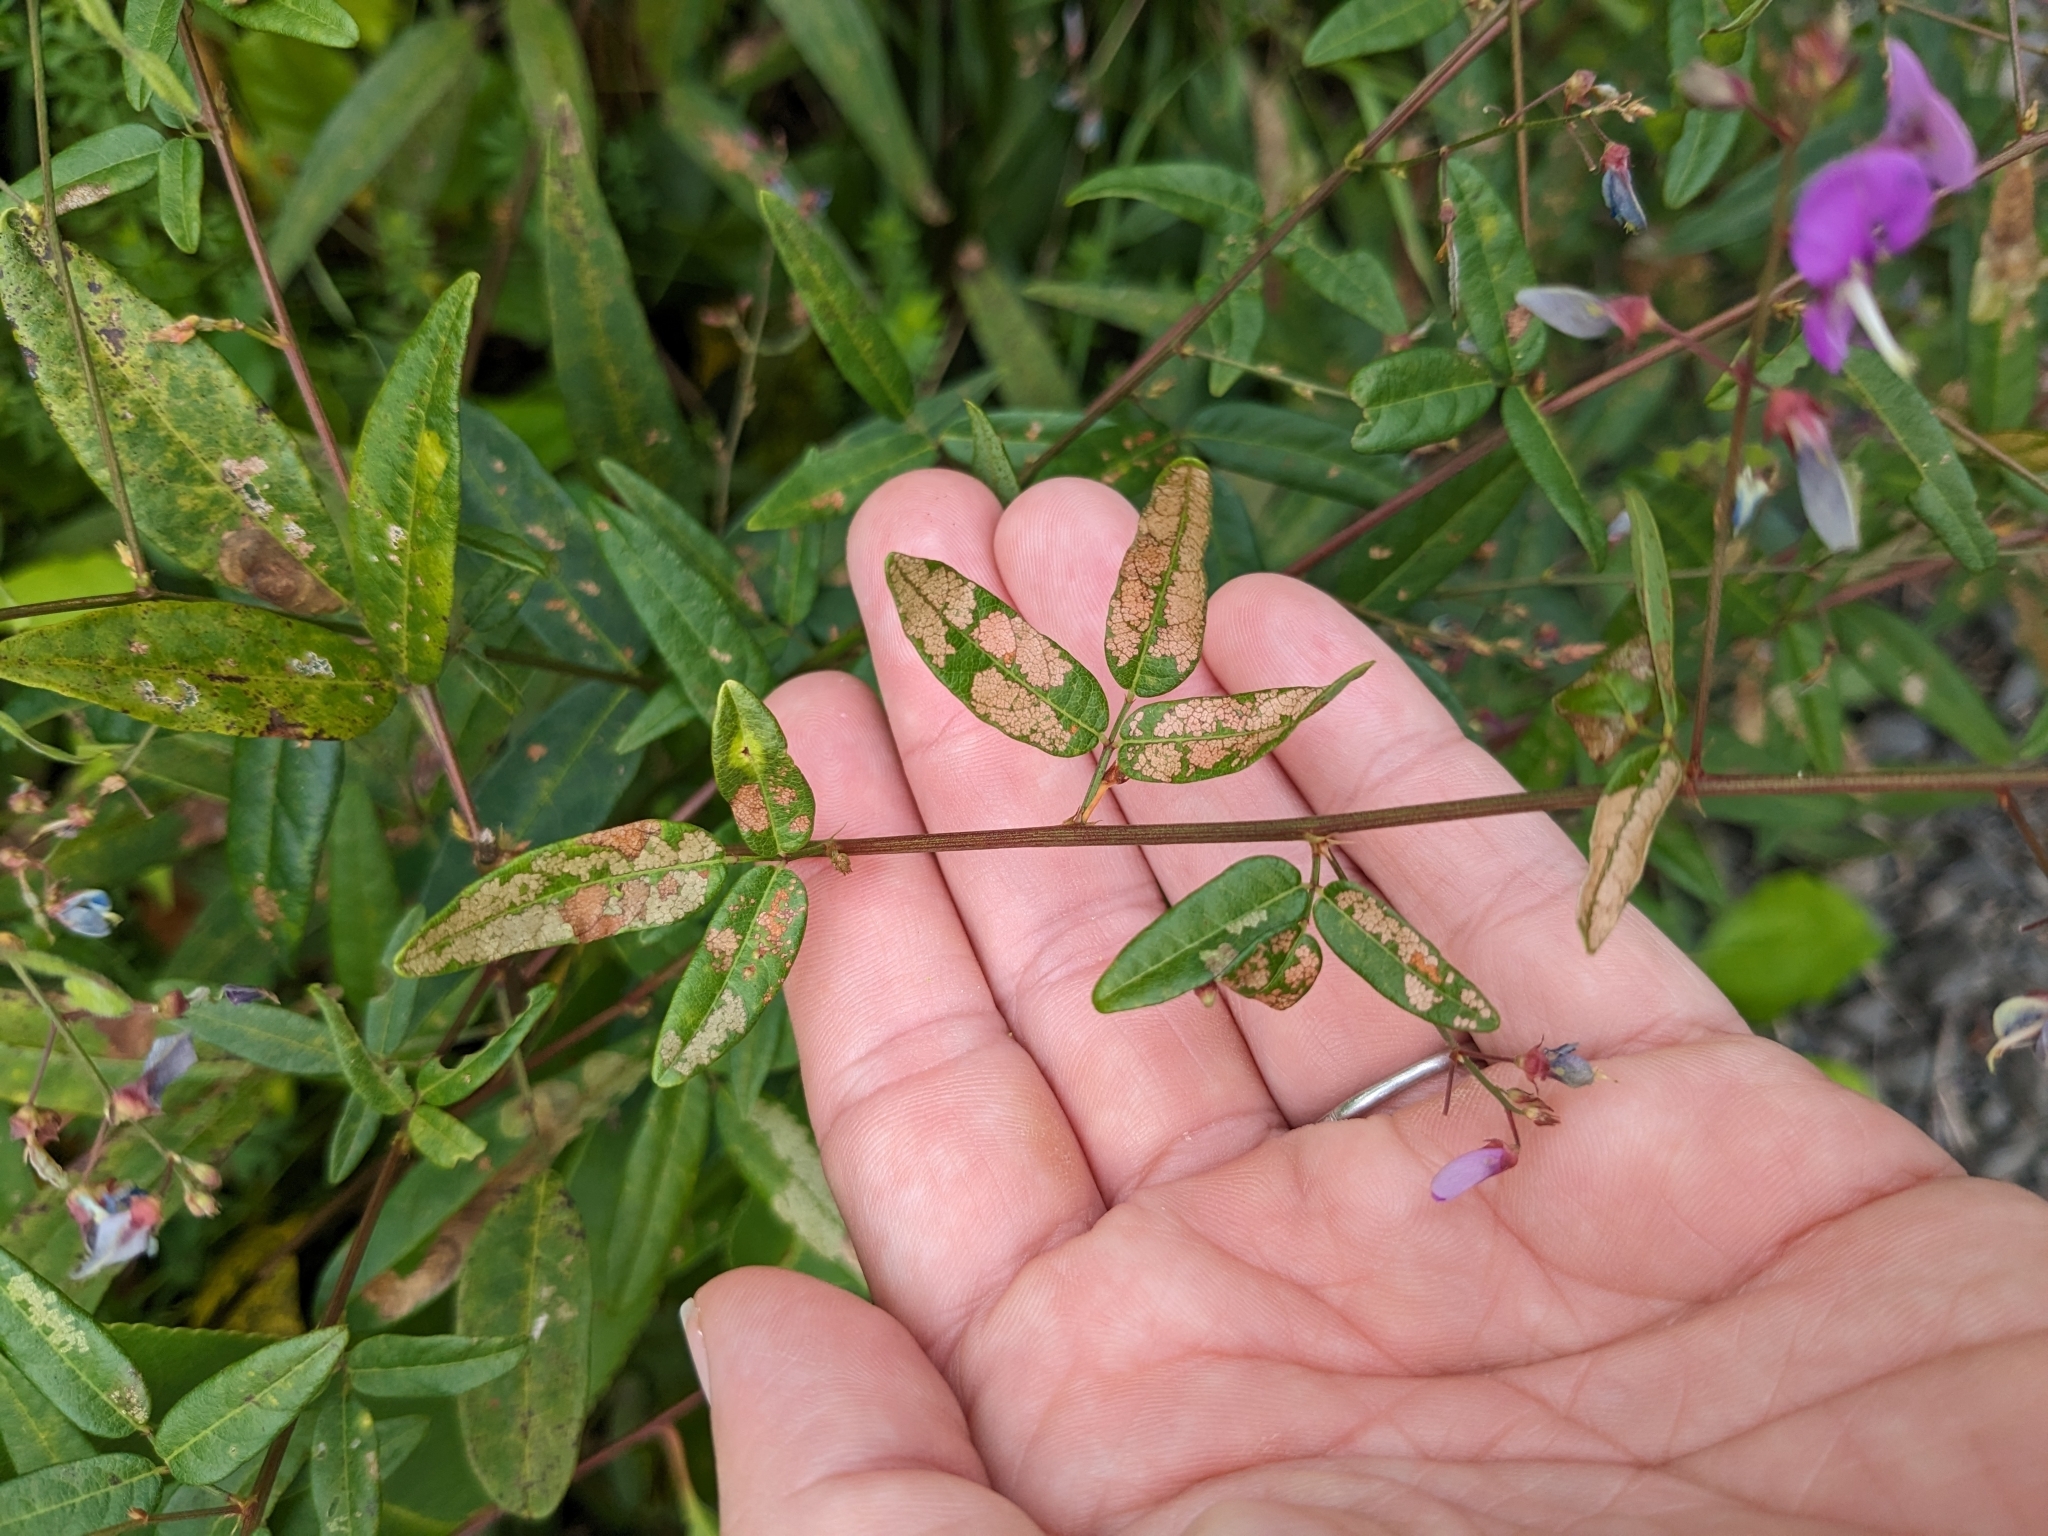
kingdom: Plantae
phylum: Tracheophyta
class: Magnoliopsida
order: Fabales
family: Fabaceae
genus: Desmodium
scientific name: Desmodium paniculatum
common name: Panicled tick-clover
